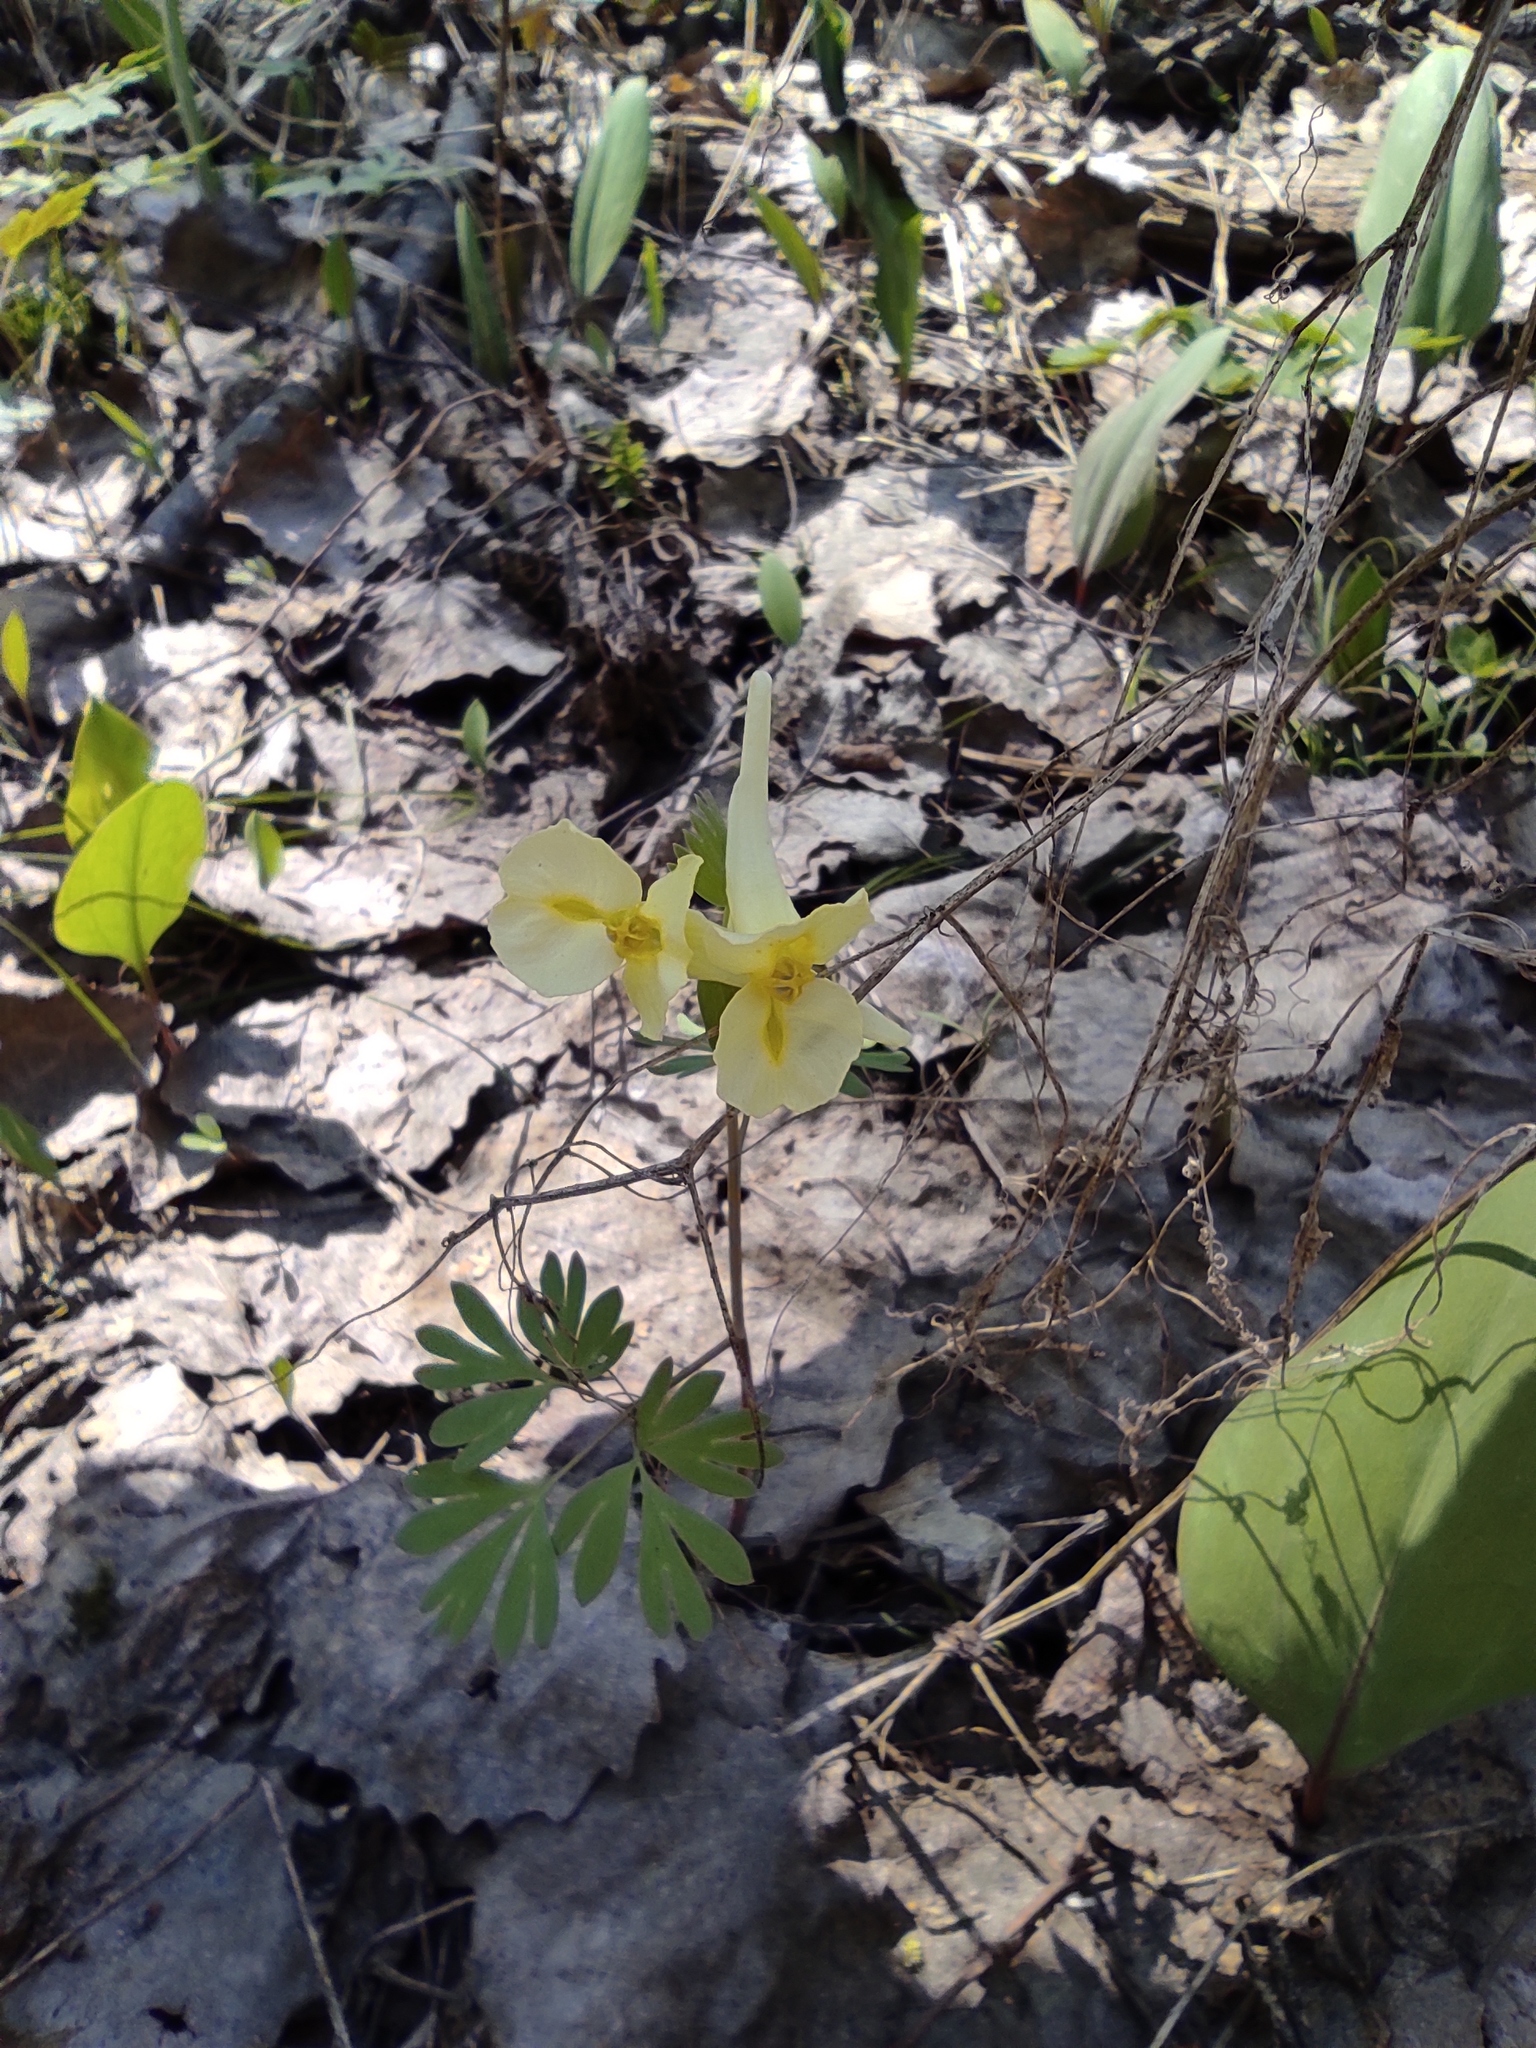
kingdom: Plantae
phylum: Tracheophyta
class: Magnoliopsida
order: Ranunculales
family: Papaveraceae
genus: Corydalis
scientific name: Corydalis bracteata
